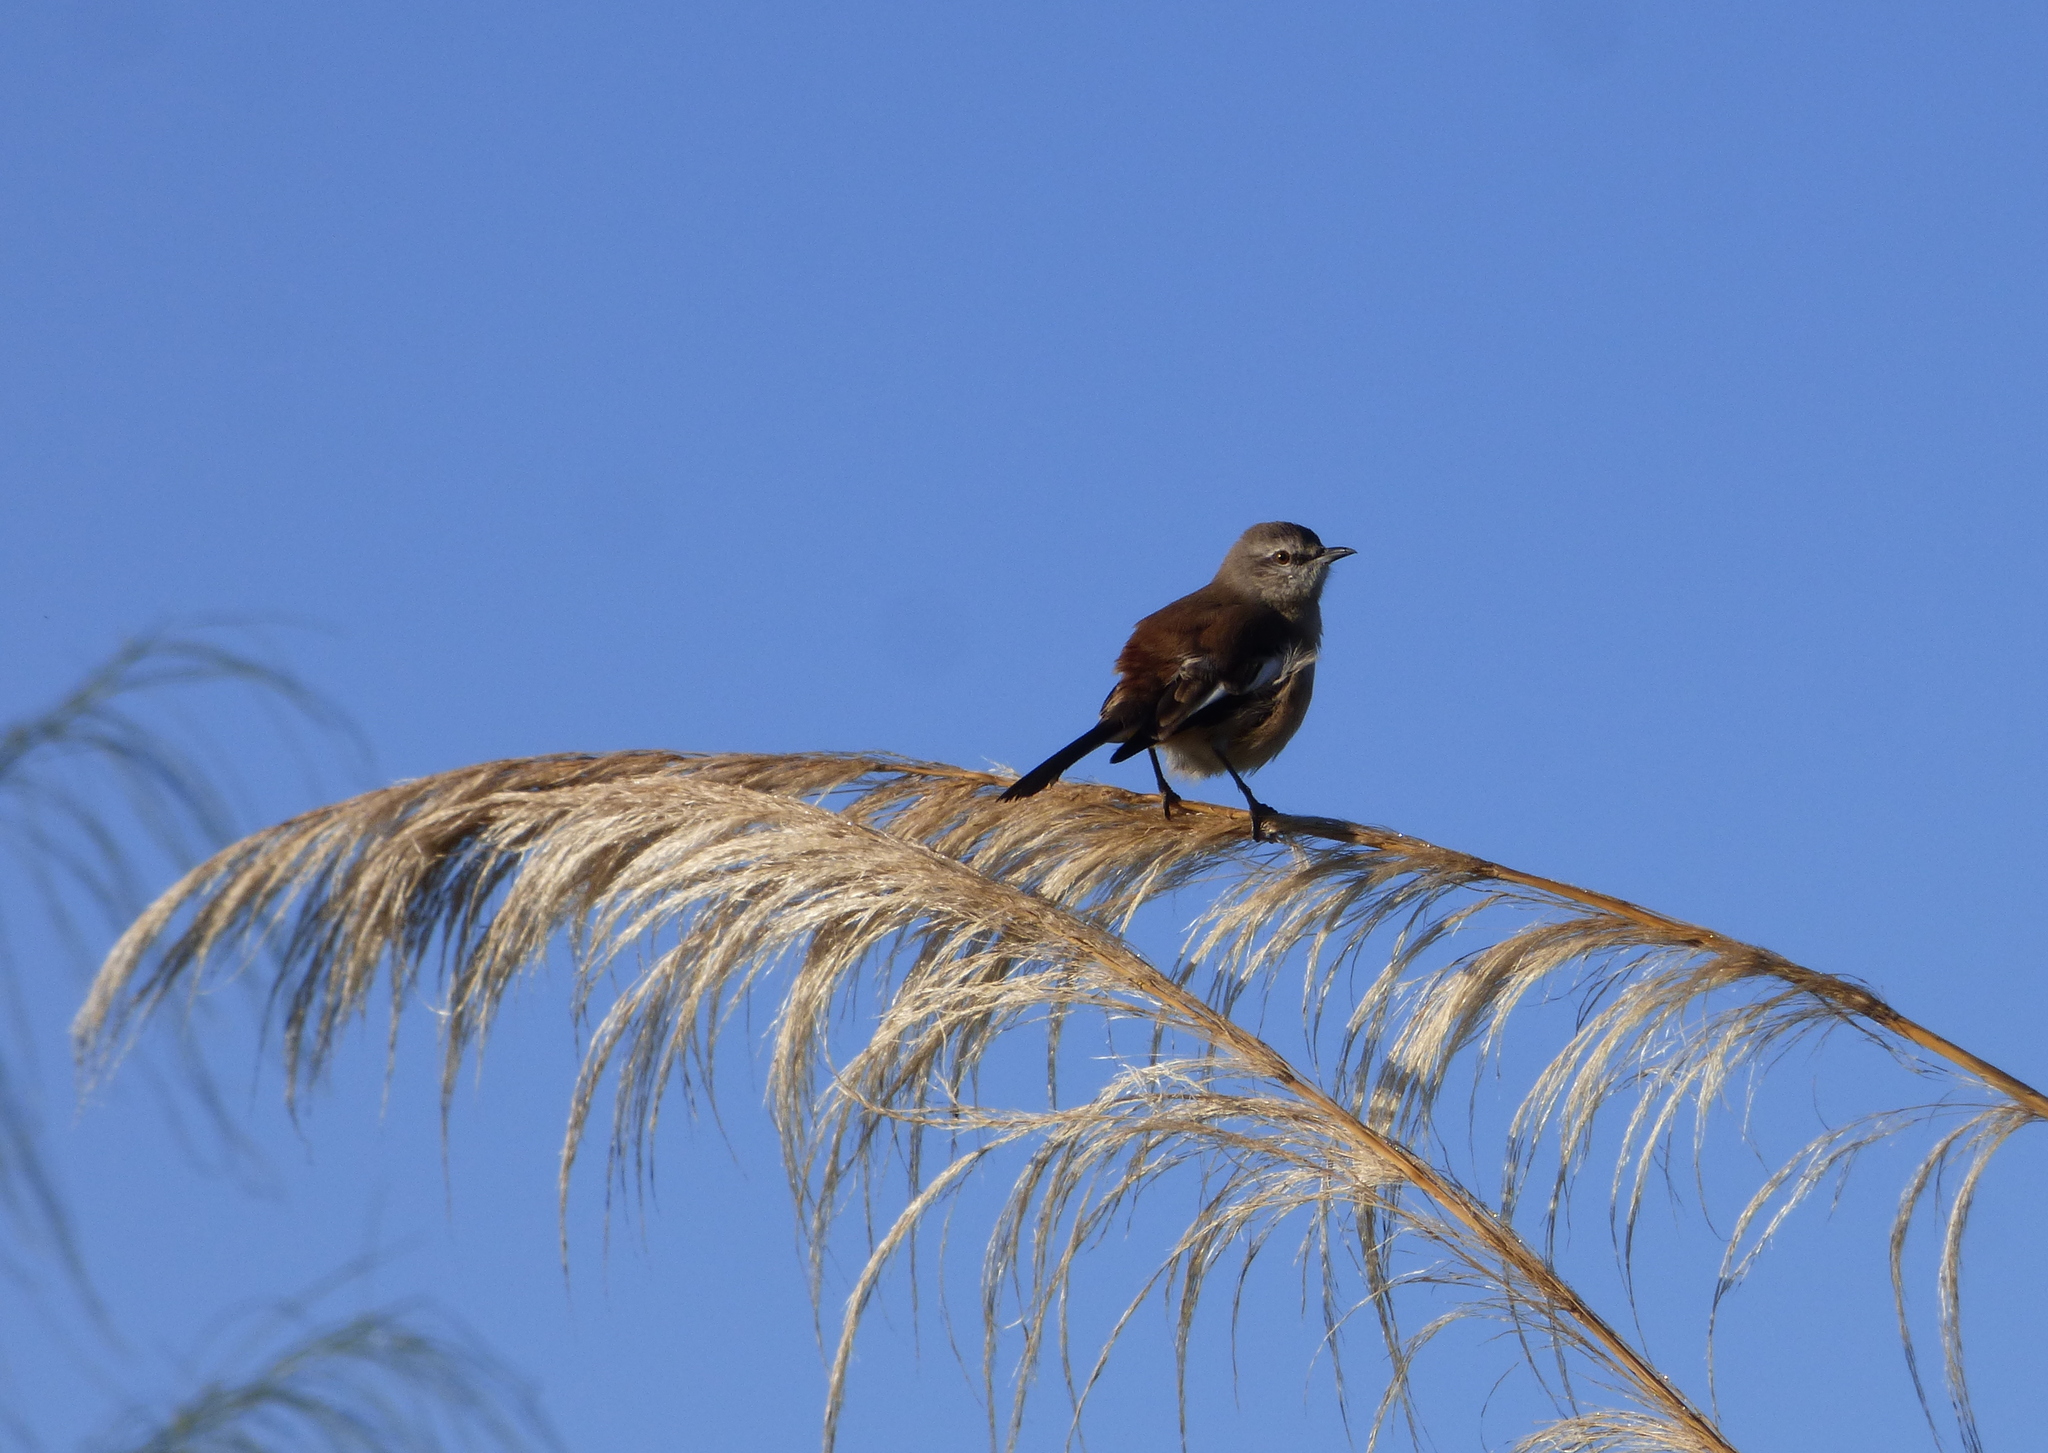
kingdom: Animalia
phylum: Chordata
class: Aves
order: Passeriformes
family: Mimidae
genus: Mimus
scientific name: Mimus triurus
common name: White-banded mockingbird
